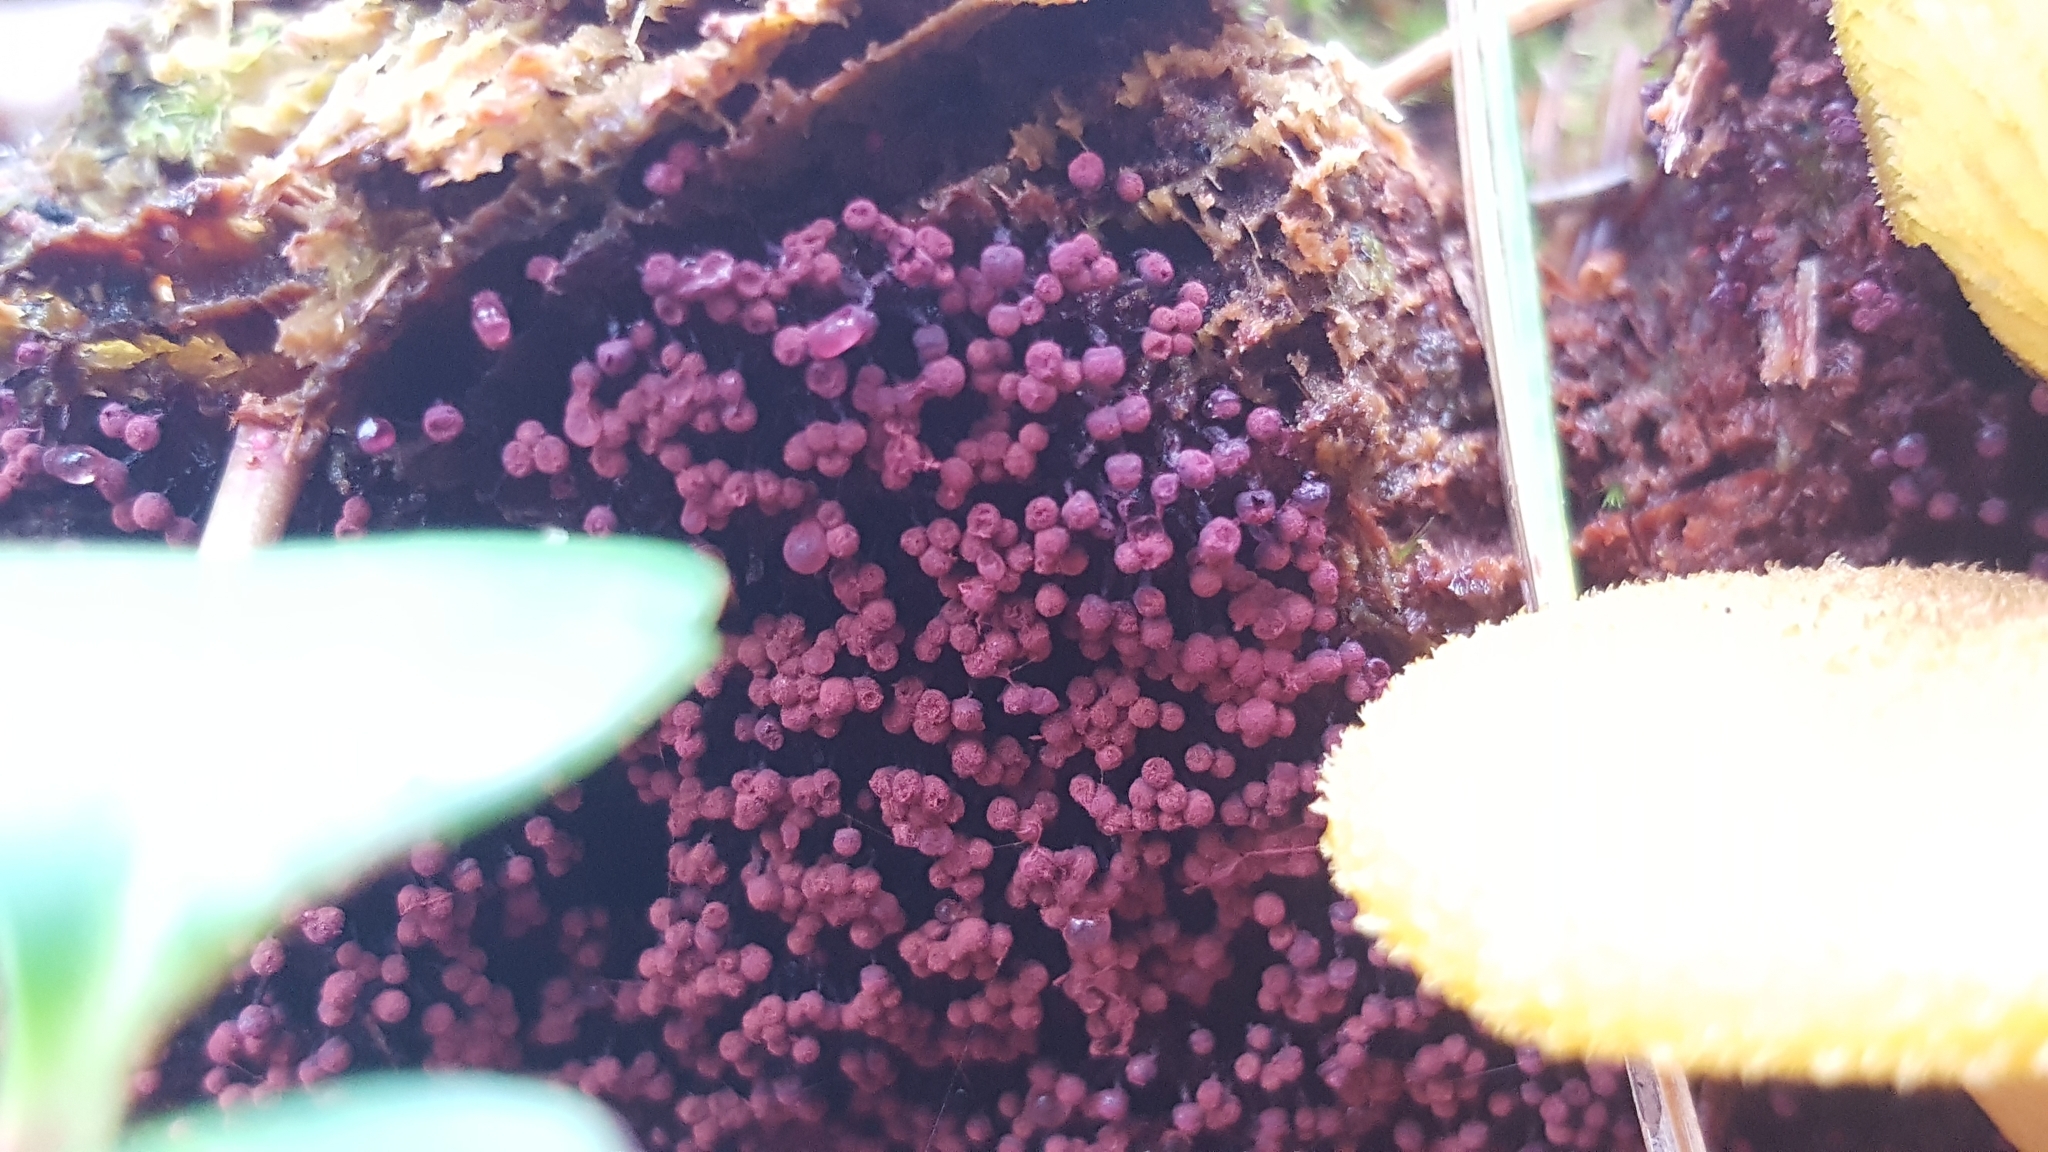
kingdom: Protozoa
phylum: Mycetozoa
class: Myxomycetes
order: Cribrariales
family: Cribrariaceae
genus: Cribraria
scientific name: Cribraria purpurea
